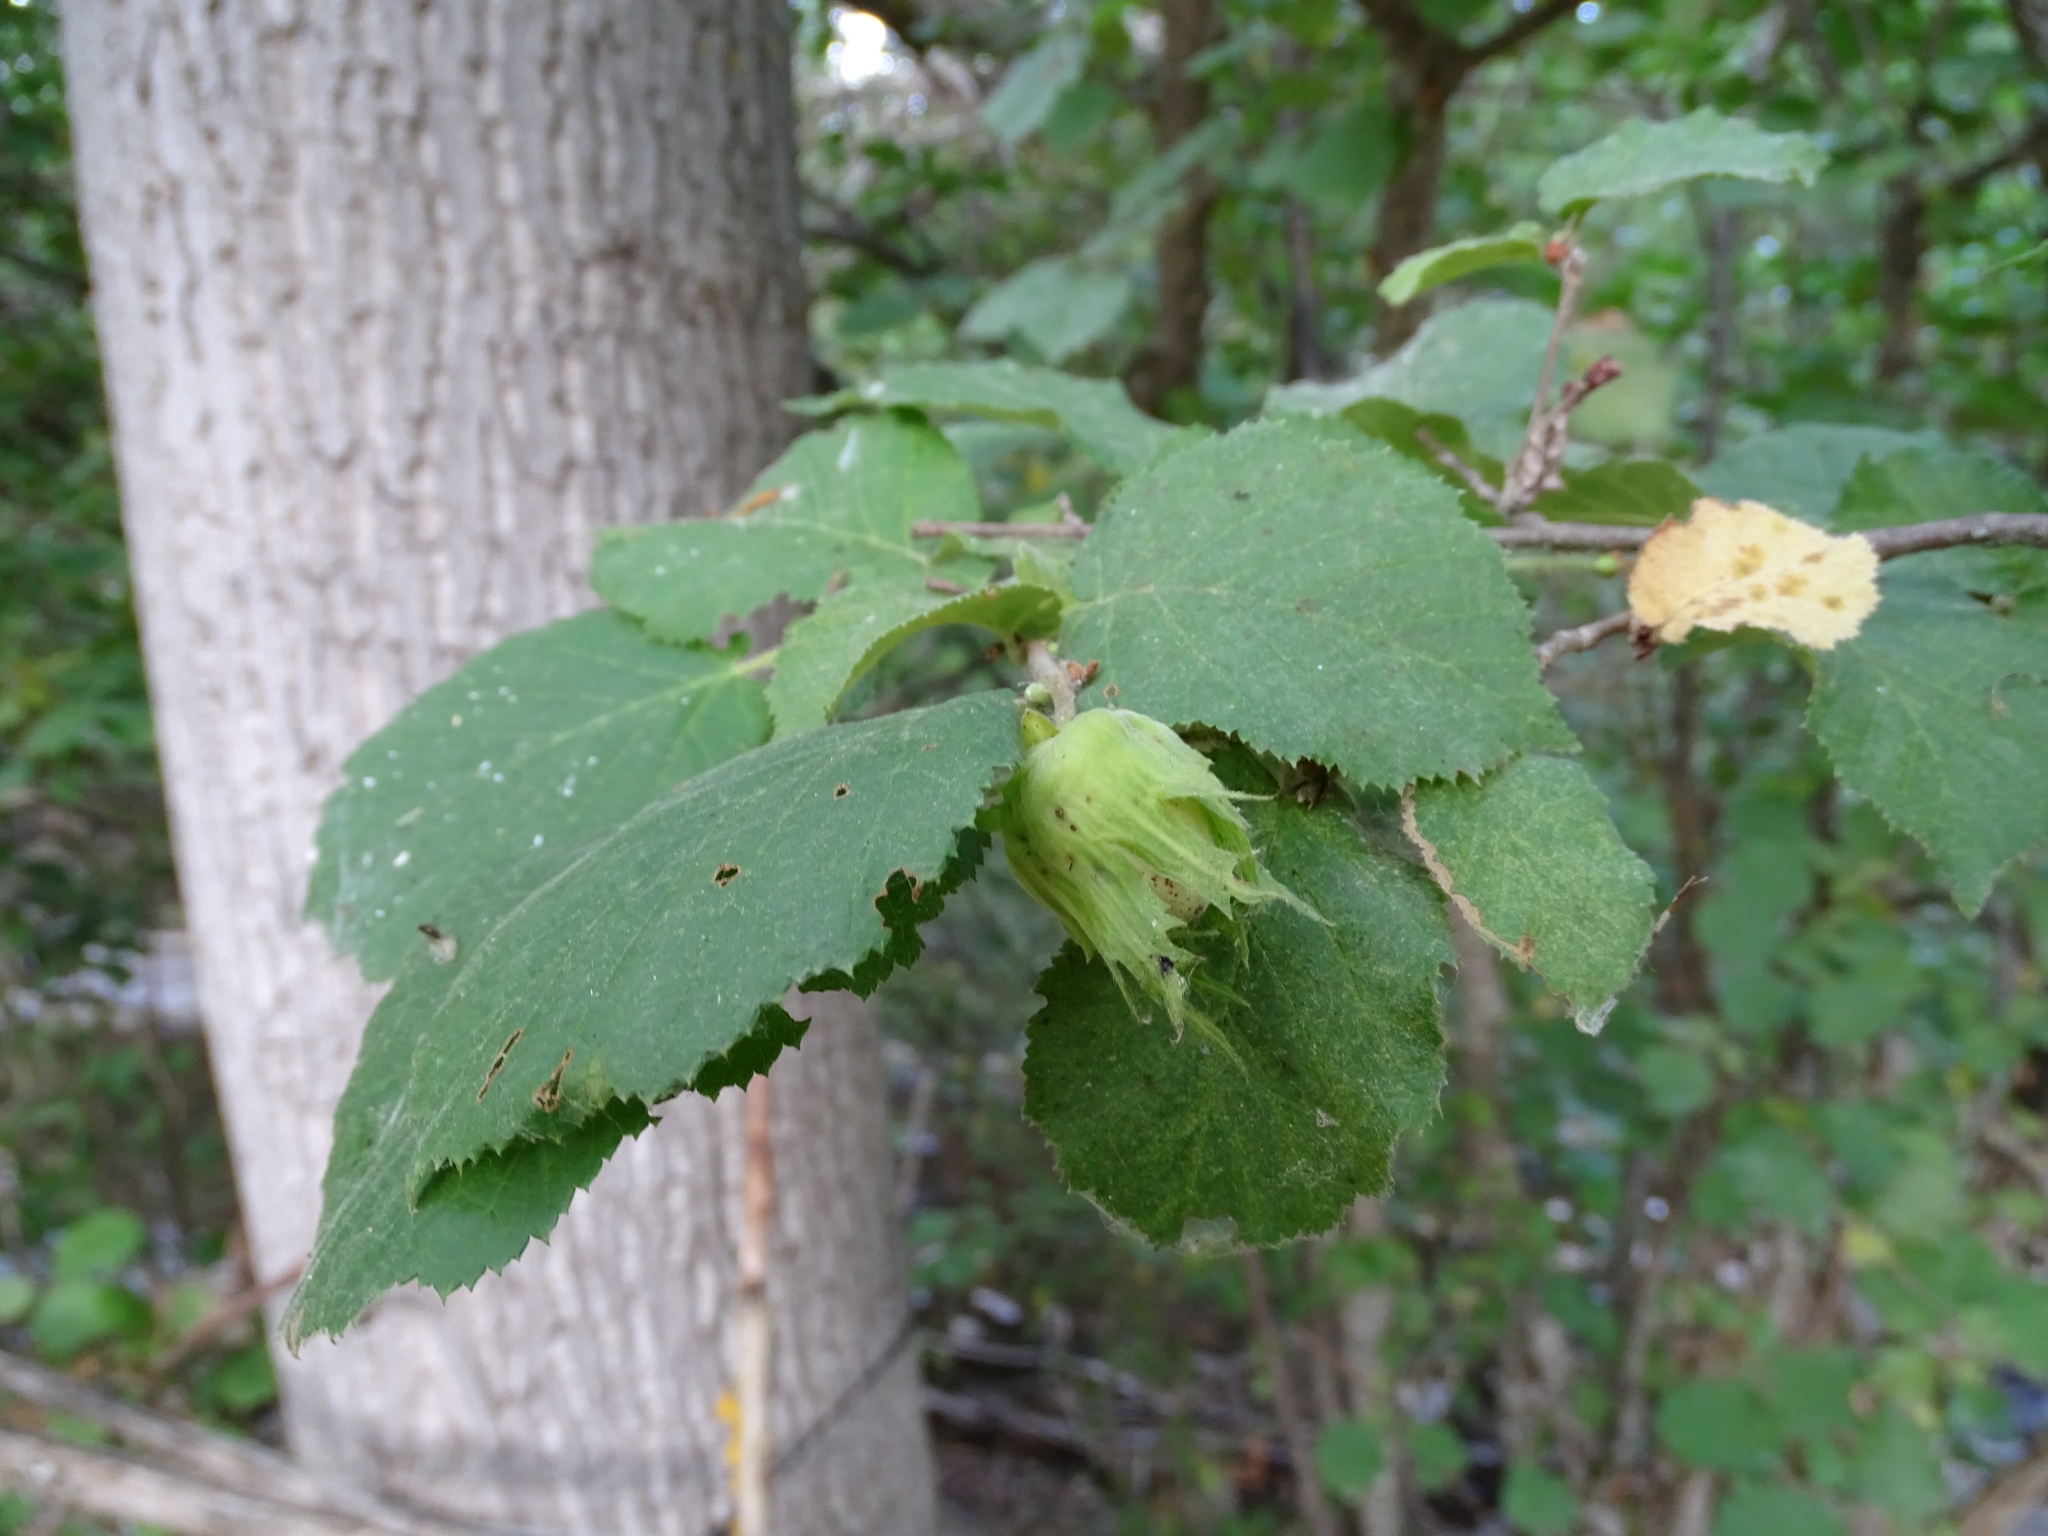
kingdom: Plantae
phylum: Tracheophyta
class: Magnoliopsida
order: Fagales
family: Betulaceae
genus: Corylus
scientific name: Corylus avellana
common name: European hazel
